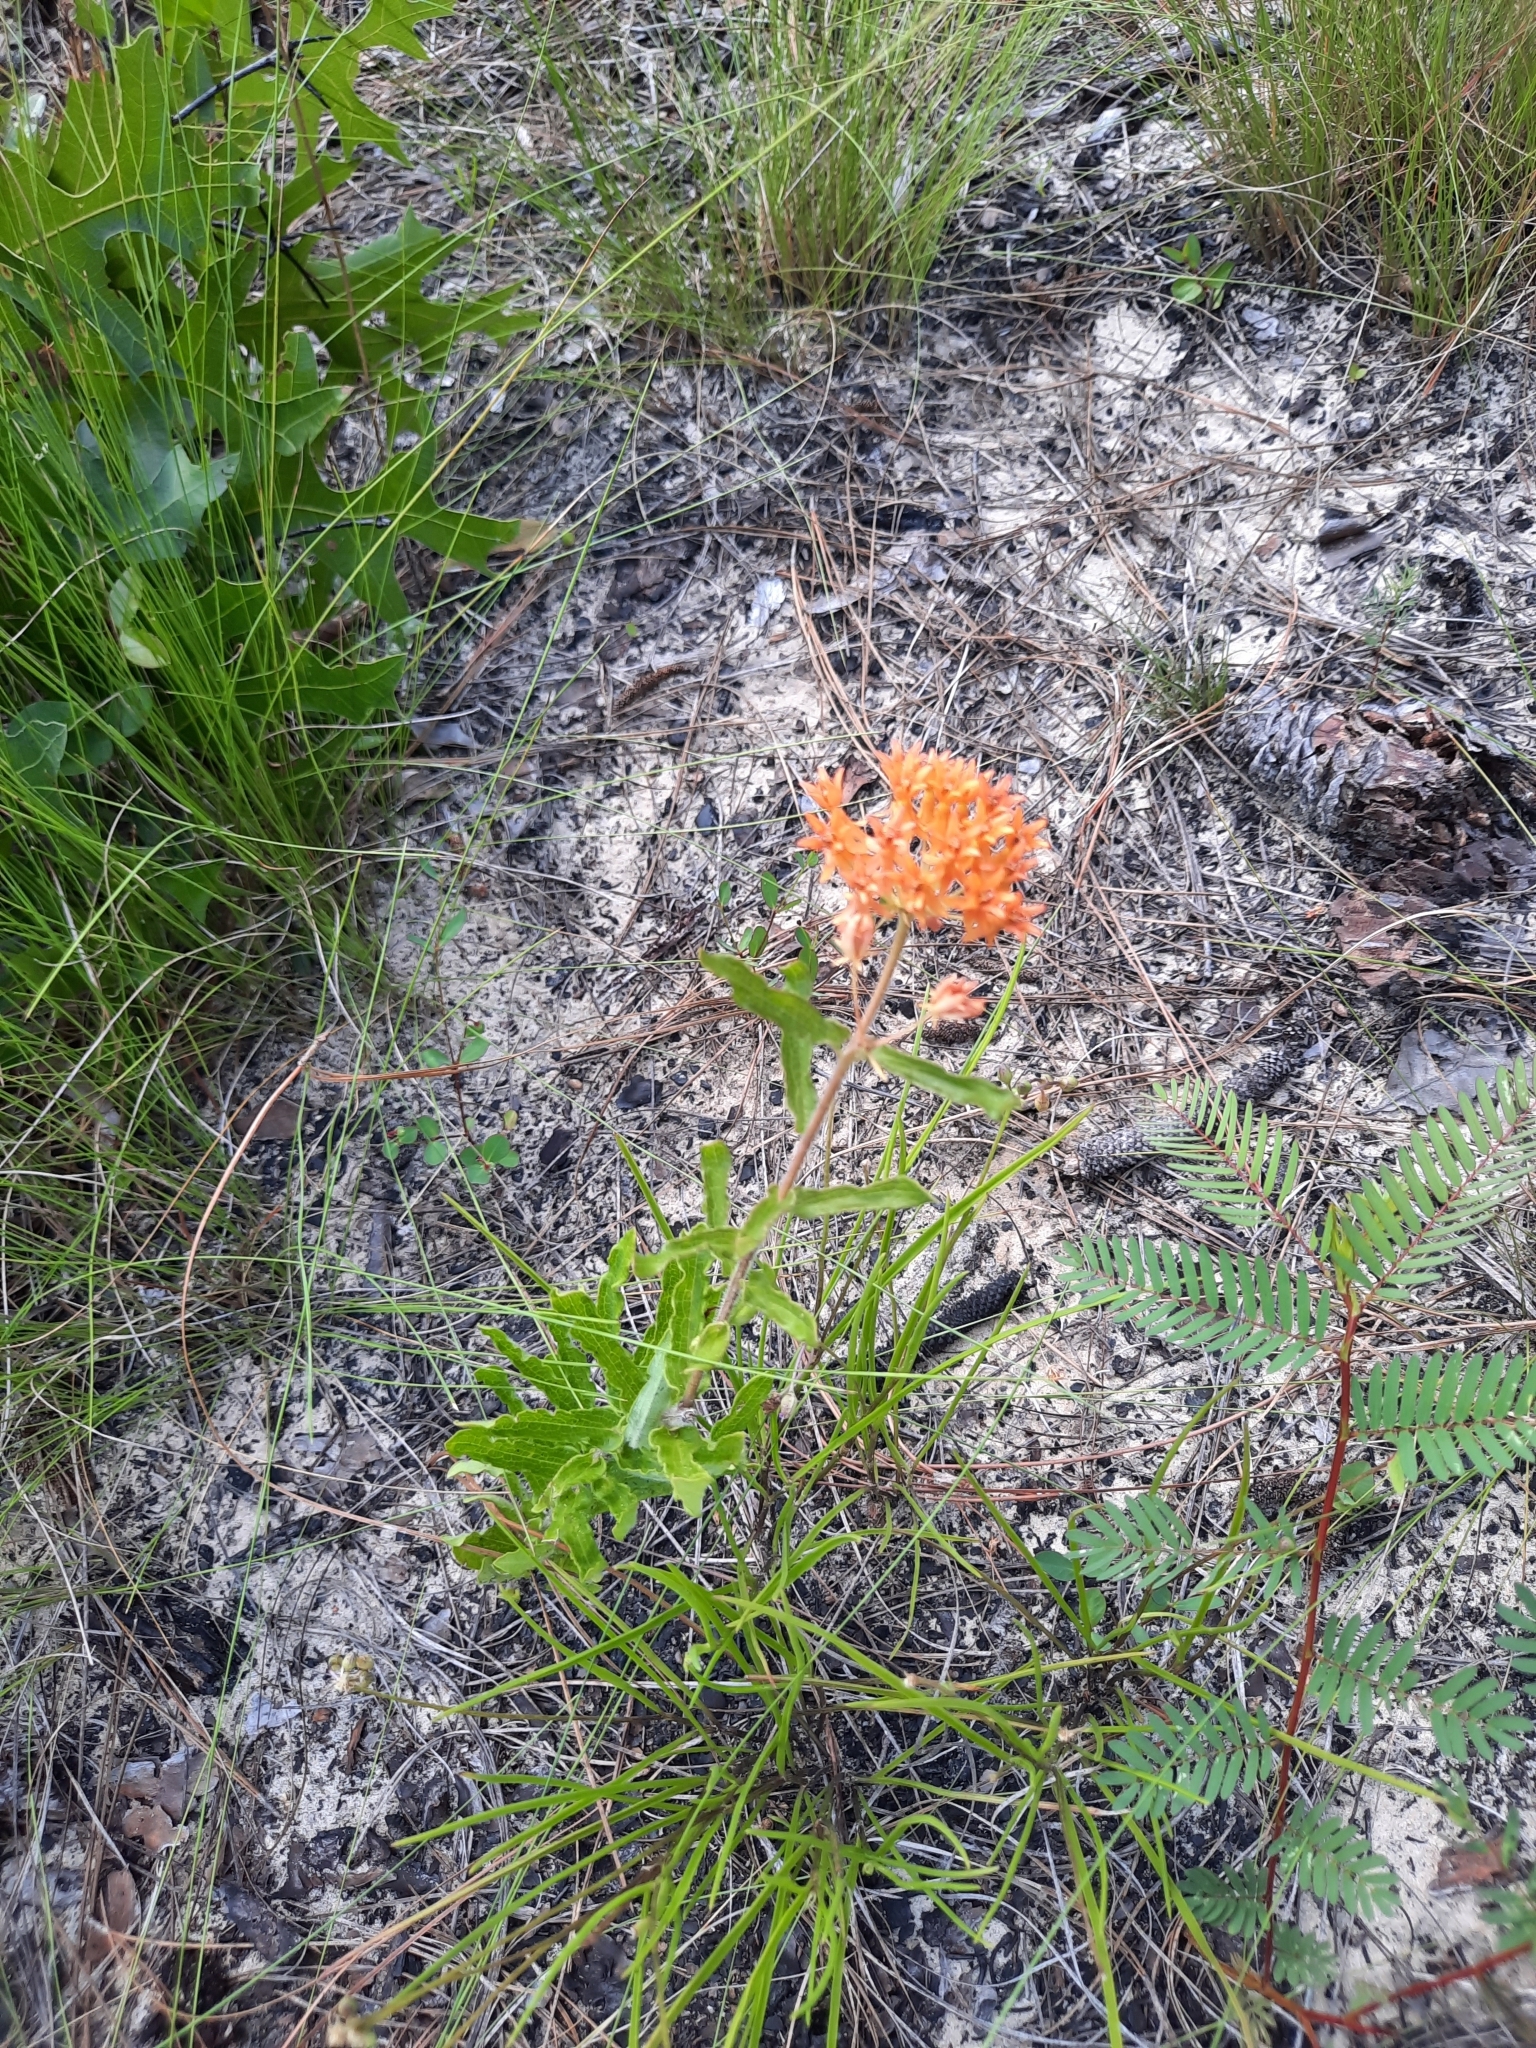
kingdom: Plantae
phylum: Tracheophyta
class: Magnoliopsida
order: Gentianales
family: Apocynaceae
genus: Asclepias
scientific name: Asclepias tuberosa
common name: Butterfly milkweed
